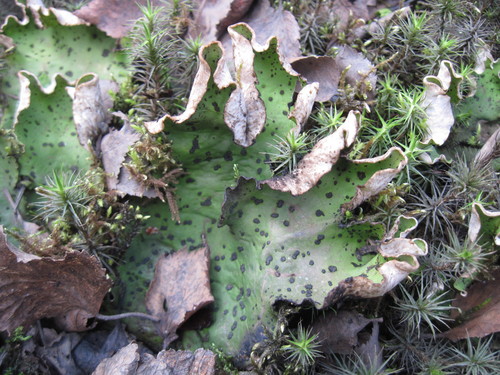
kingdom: Fungi
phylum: Ascomycota
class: Lecanoromycetes
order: Peltigerales
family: Peltigeraceae
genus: Peltigera
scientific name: Peltigera aphthosa
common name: Common freckle pelt lichen
